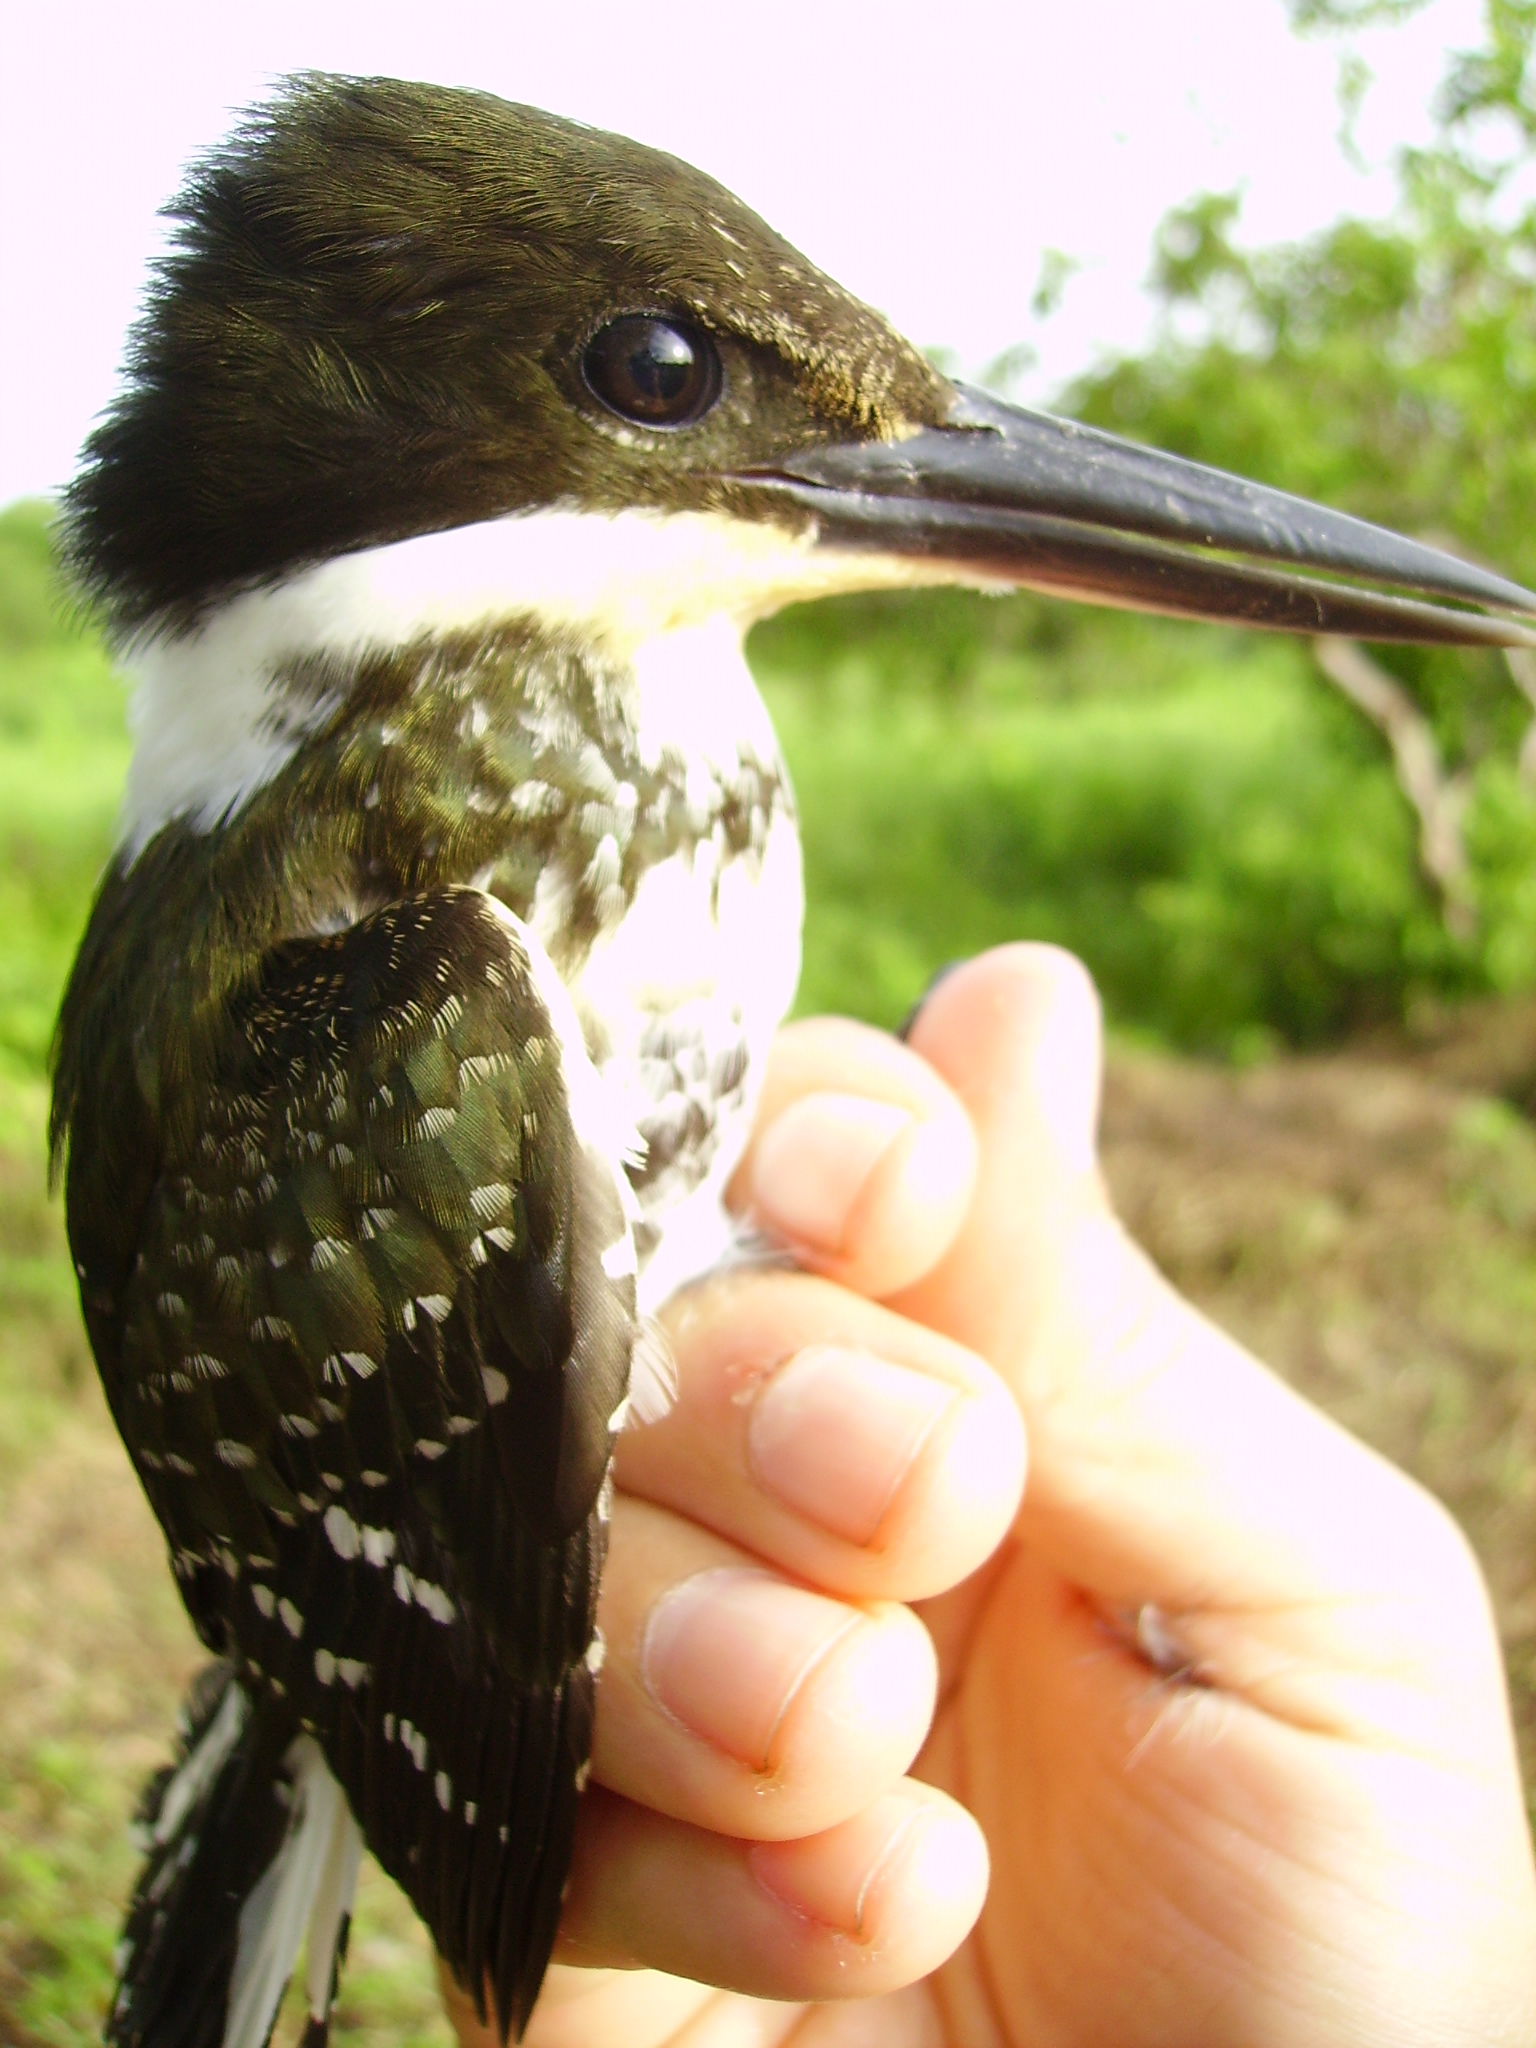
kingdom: Animalia
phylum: Chordata
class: Aves
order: Coraciiformes
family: Alcedinidae
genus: Chloroceryle
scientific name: Chloroceryle americana
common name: Green kingfisher
